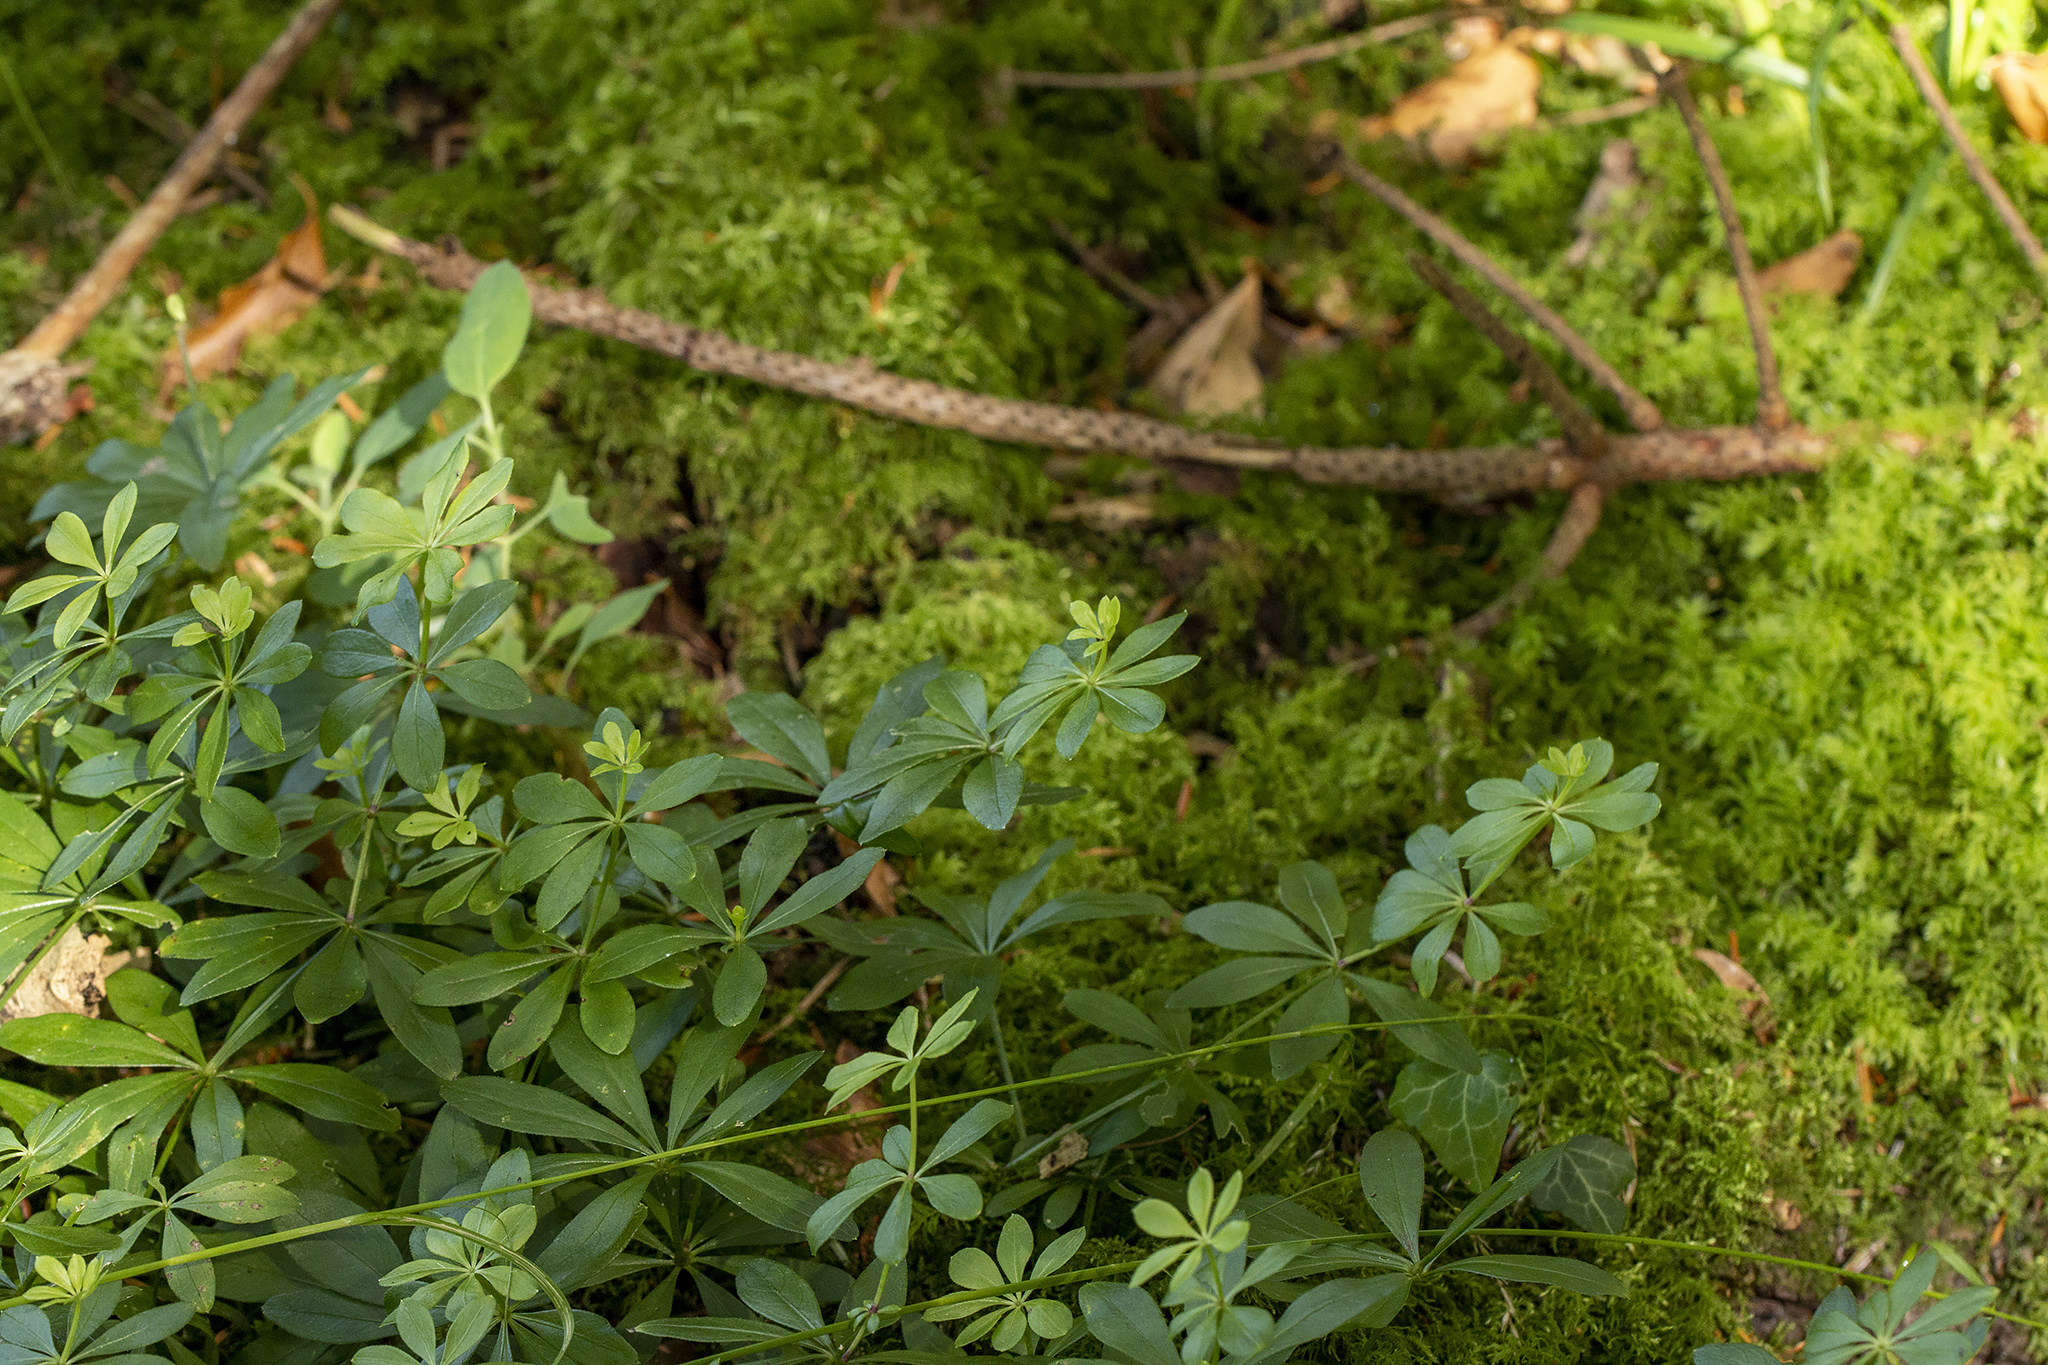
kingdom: Plantae
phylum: Tracheophyta
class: Magnoliopsida
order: Gentianales
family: Rubiaceae
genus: Galium
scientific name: Galium odoratum
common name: Sweet woodruff
